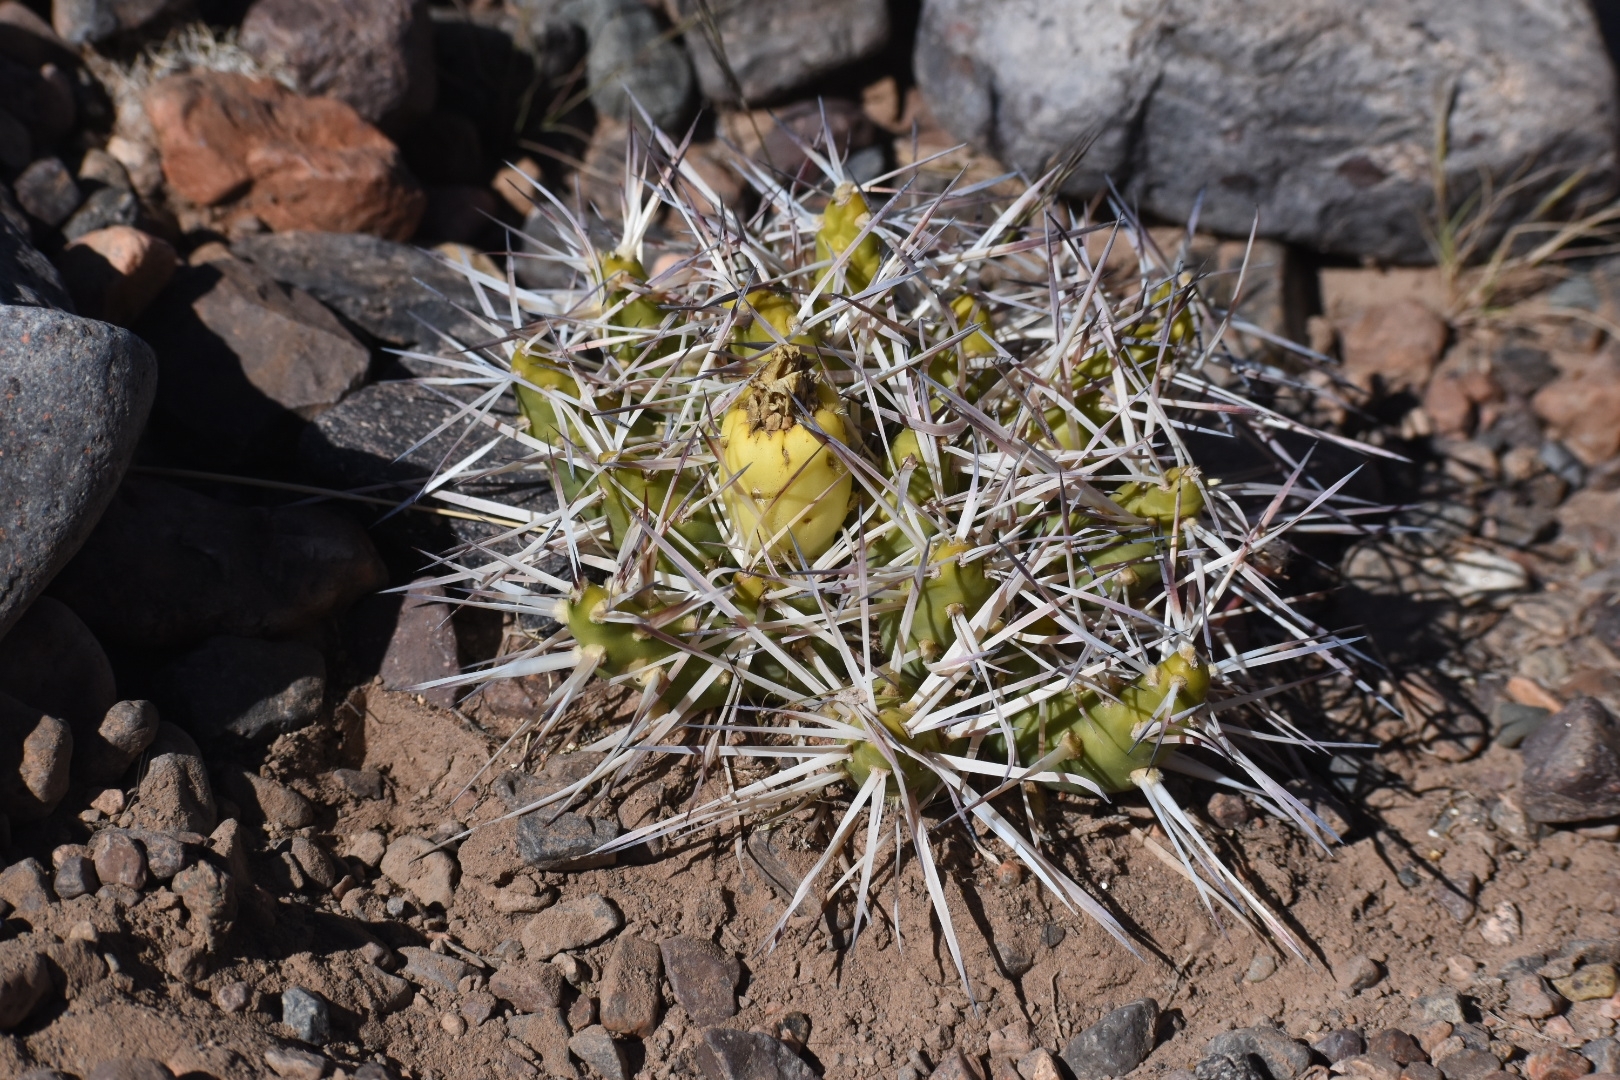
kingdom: Plantae
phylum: Tracheophyta
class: Magnoliopsida
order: Caryophyllales
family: Cactaceae
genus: Maihueniopsis
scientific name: Maihueniopsis glomerata
